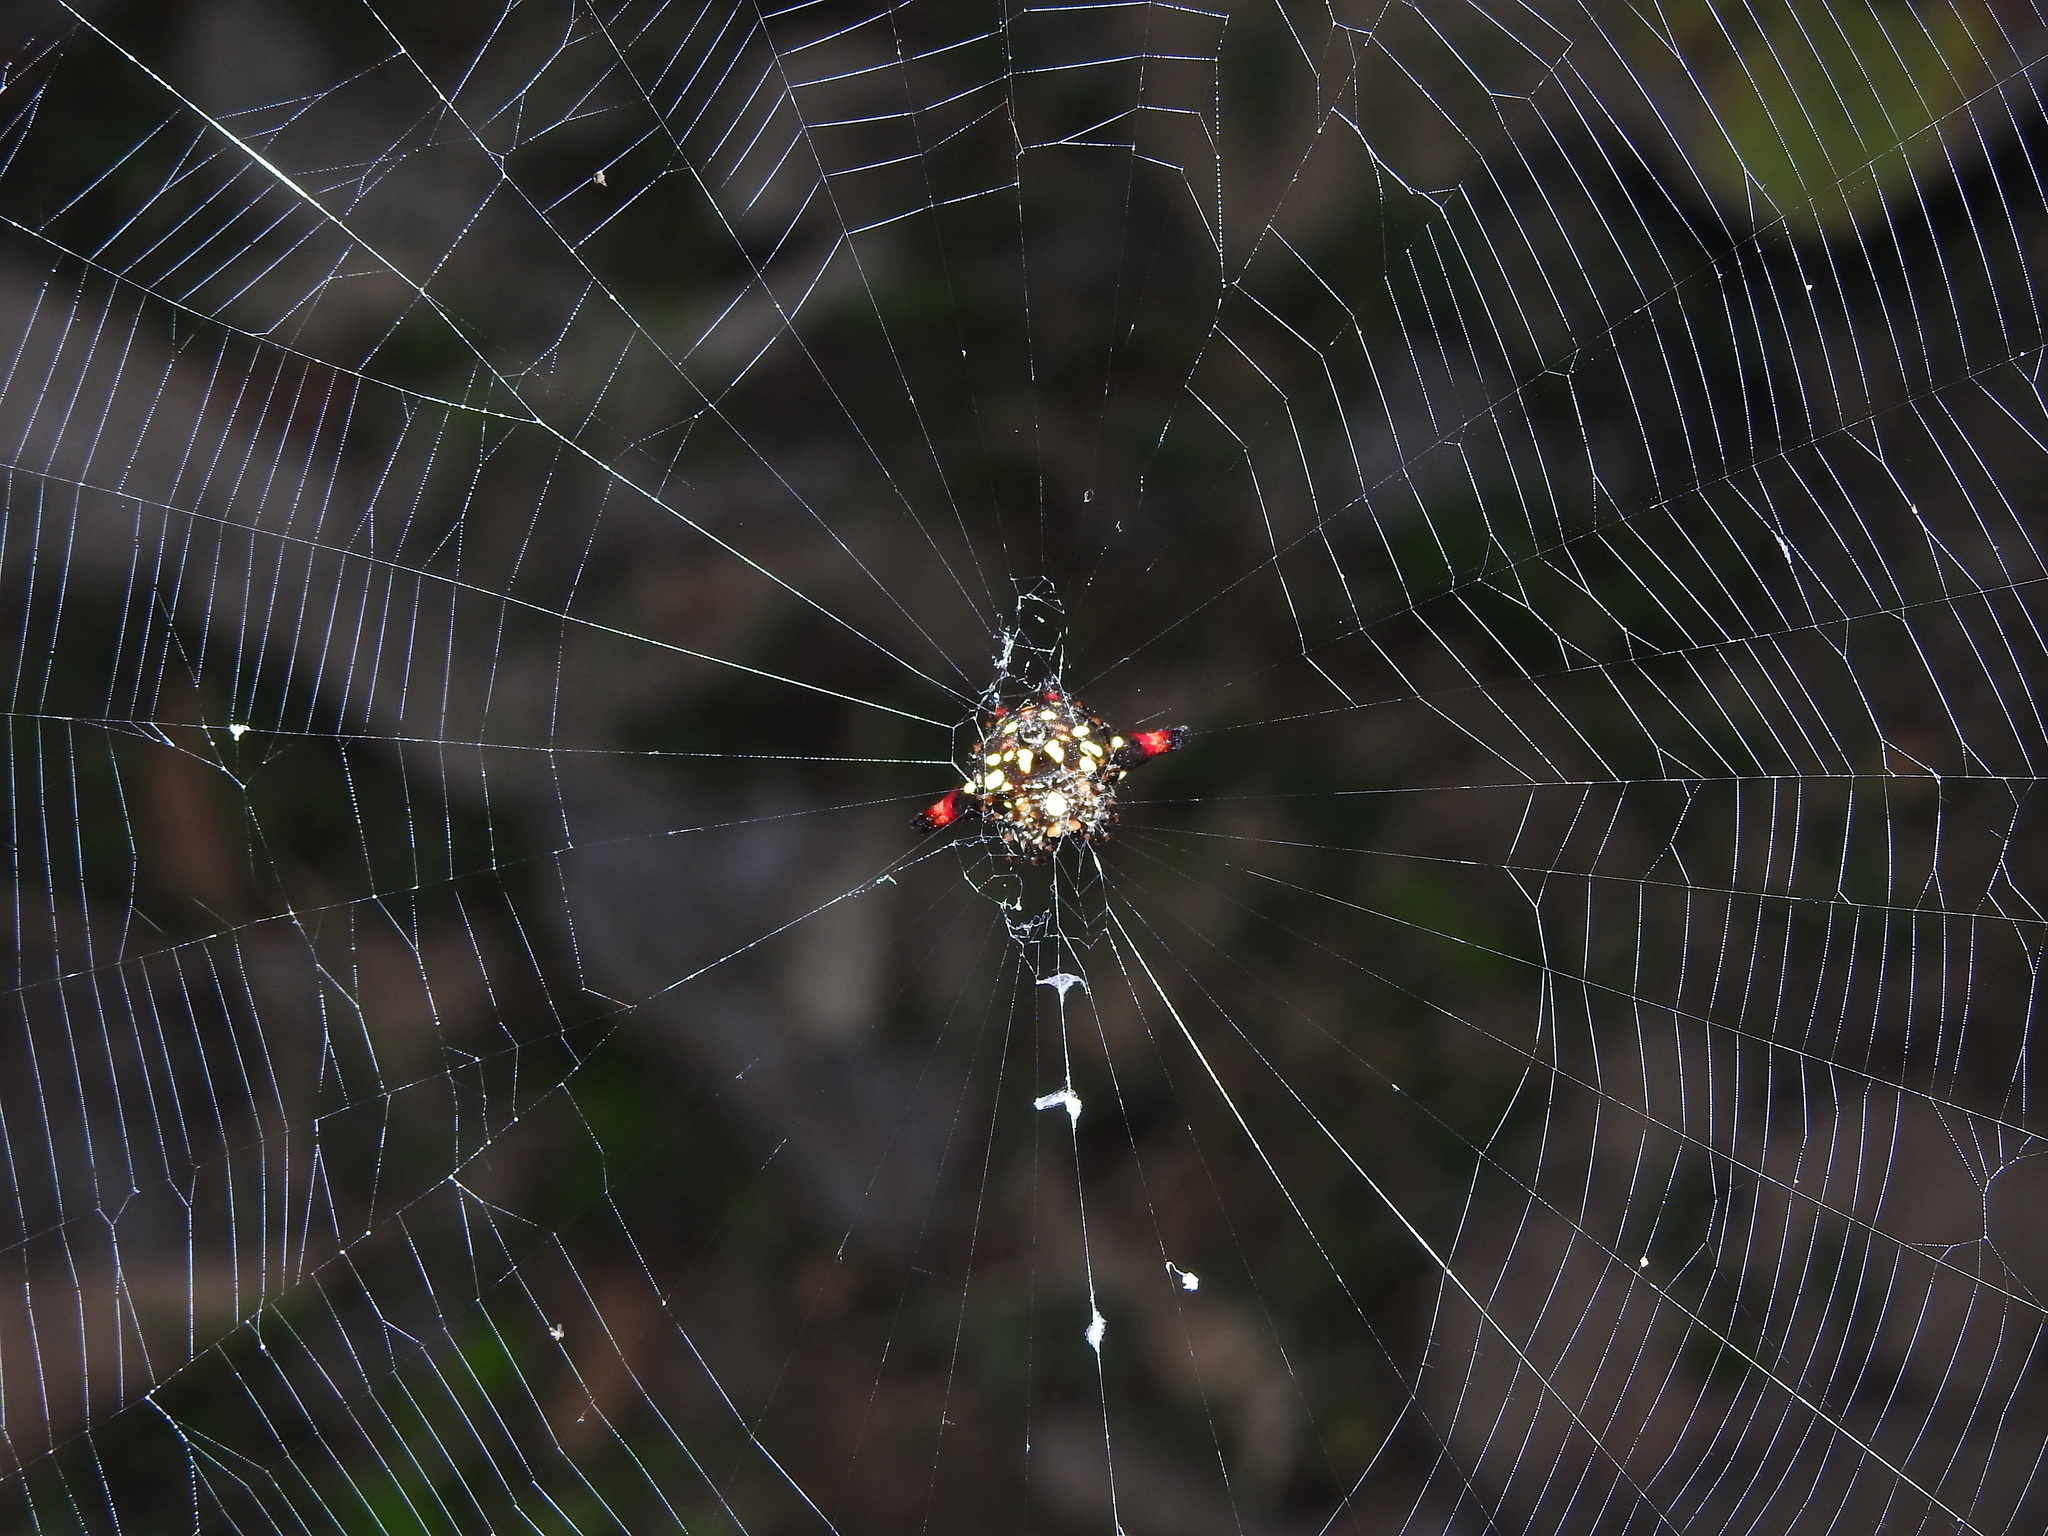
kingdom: Animalia
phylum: Arthropoda
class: Arachnida
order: Araneae
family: Araneidae
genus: Gasteracantha
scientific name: Gasteracantha geminata
